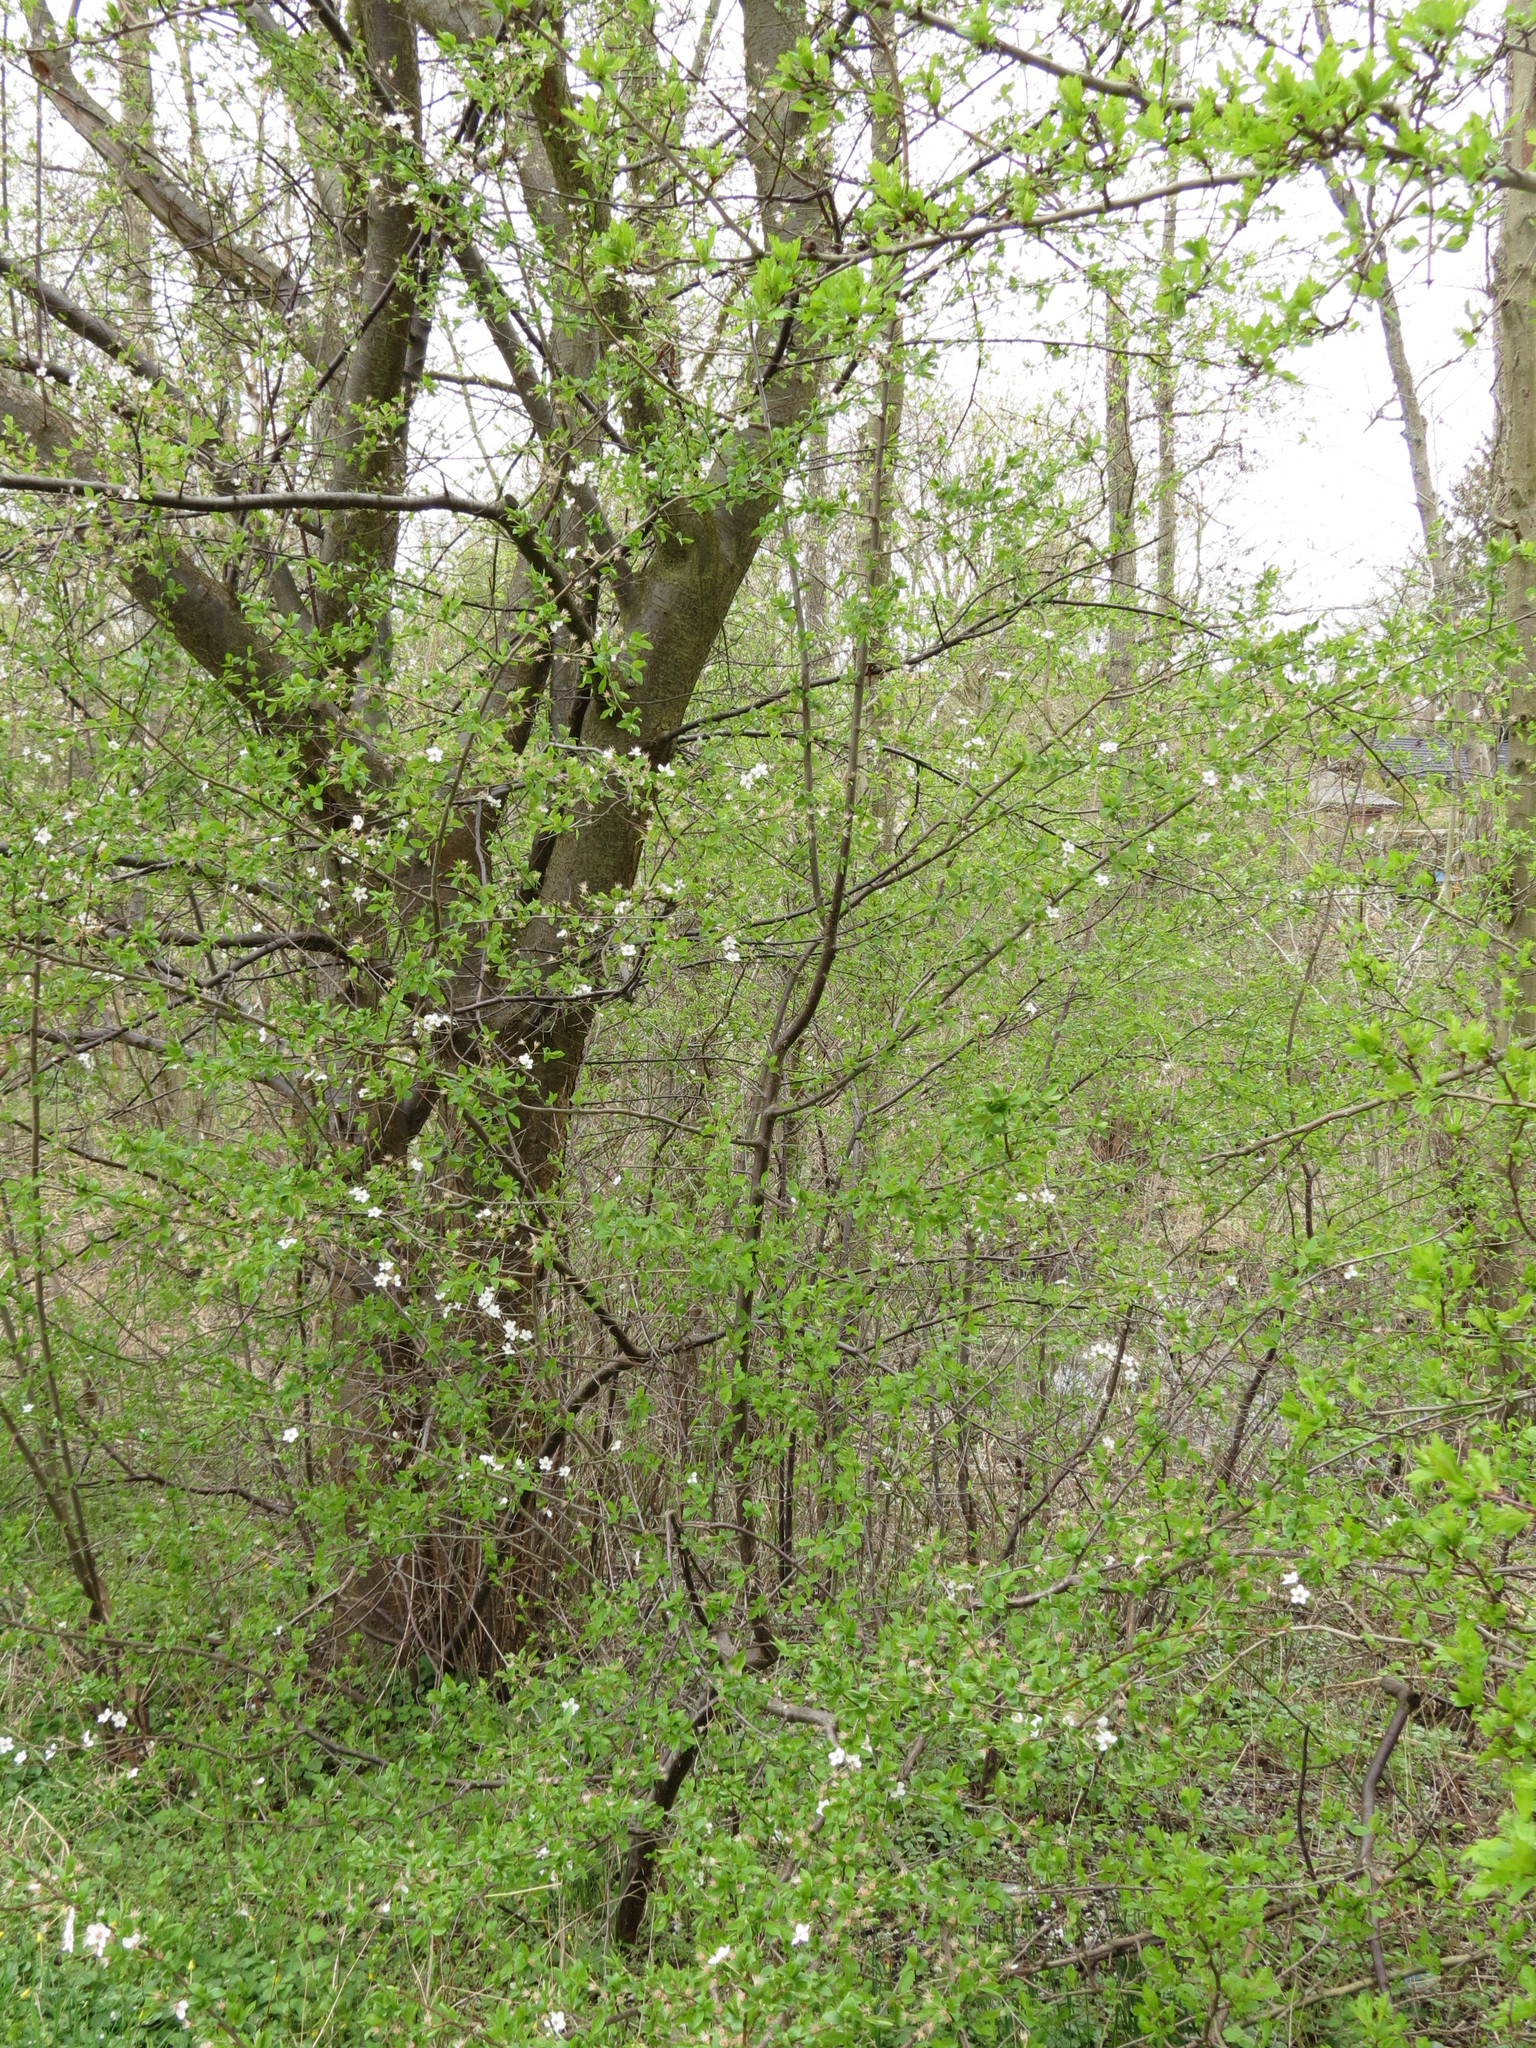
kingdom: Plantae
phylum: Tracheophyta
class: Magnoliopsida
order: Rosales
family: Rosaceae
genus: Prunus
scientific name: Prunus cerasifera
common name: Cherry plum
